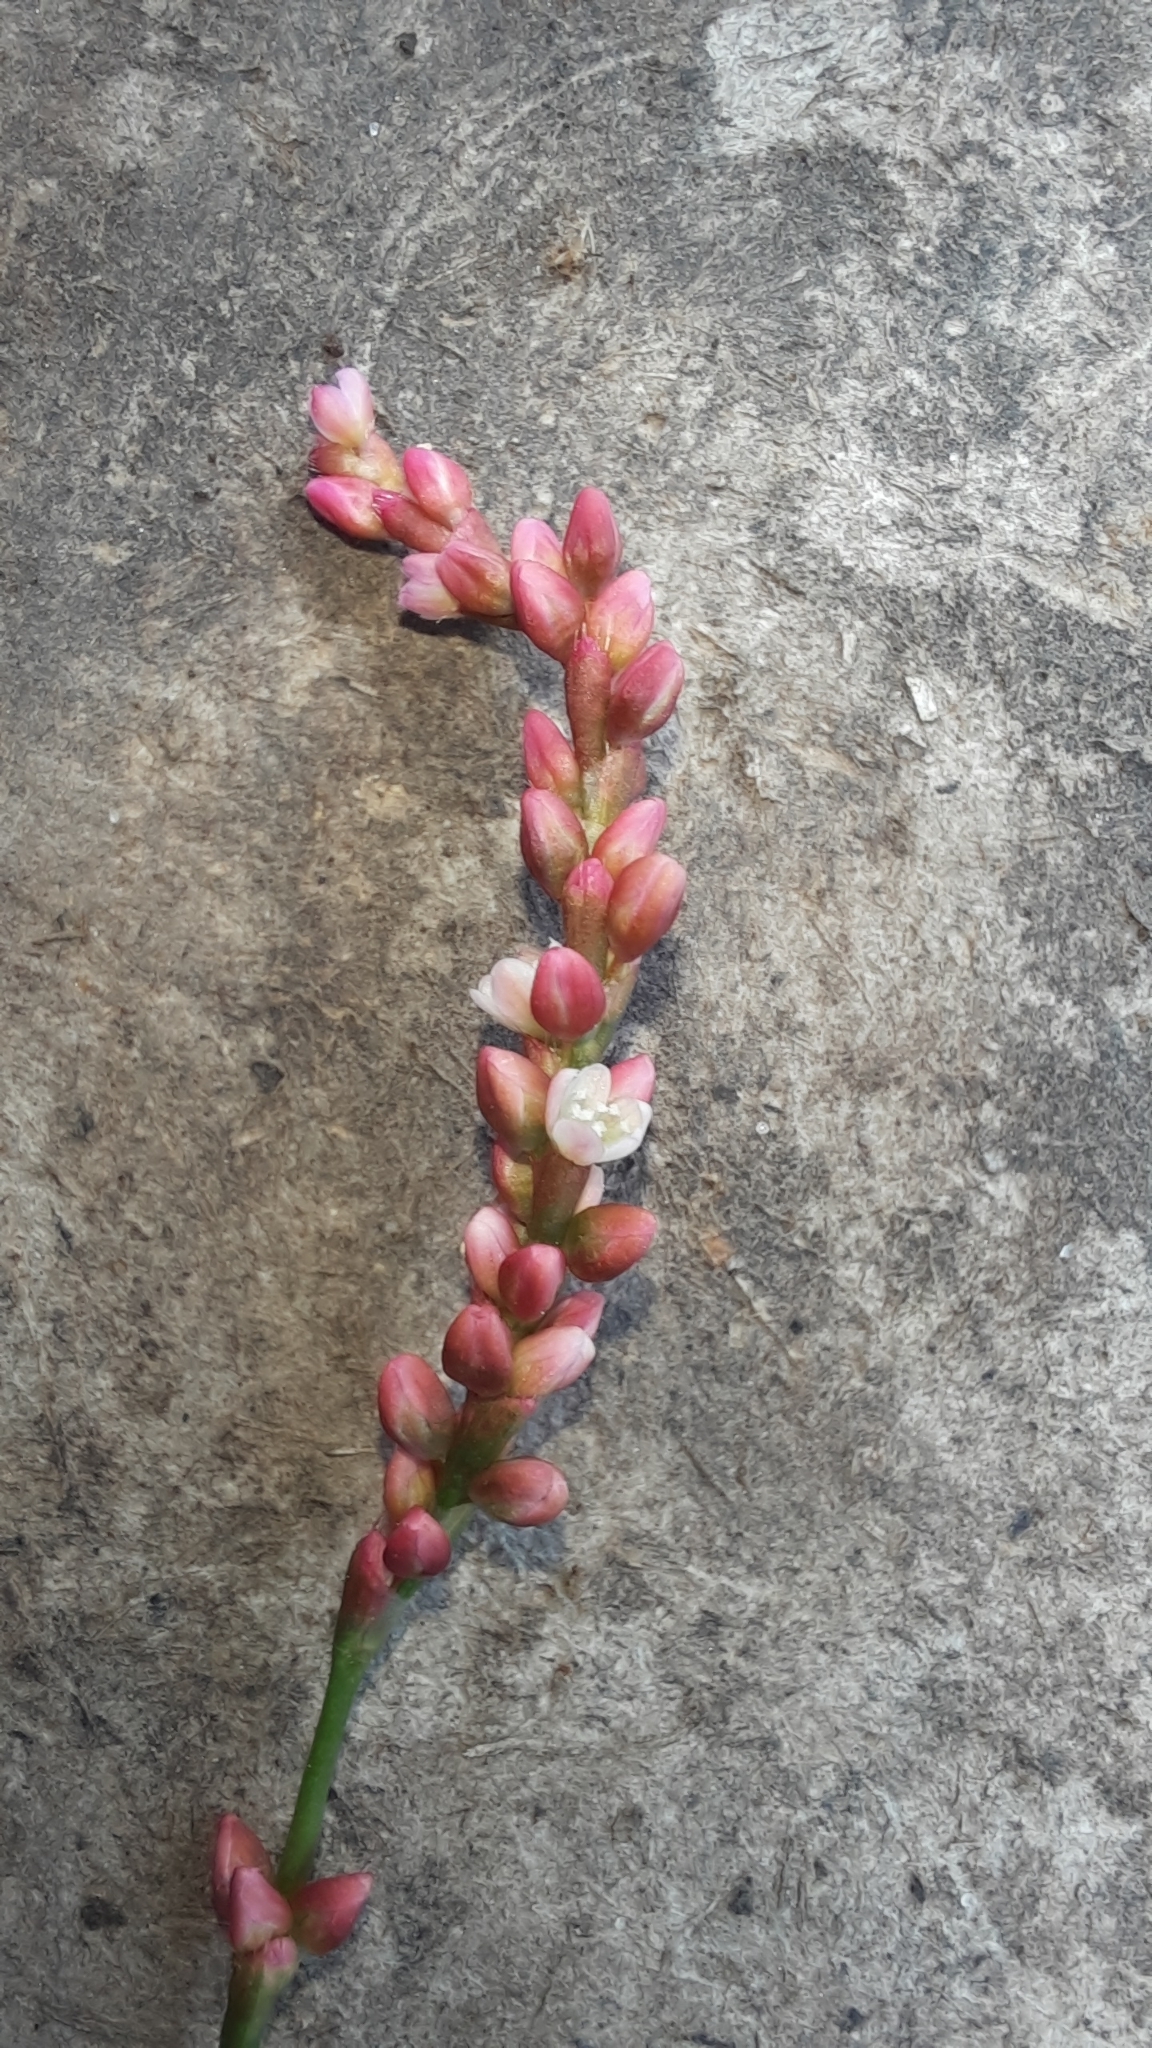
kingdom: Plantae
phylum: Tracheophyta
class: Magnoliopsida
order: Caryophyllales
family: Polygonaceae
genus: Persicaria
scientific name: Persicaria minor
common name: Small water-pepper
